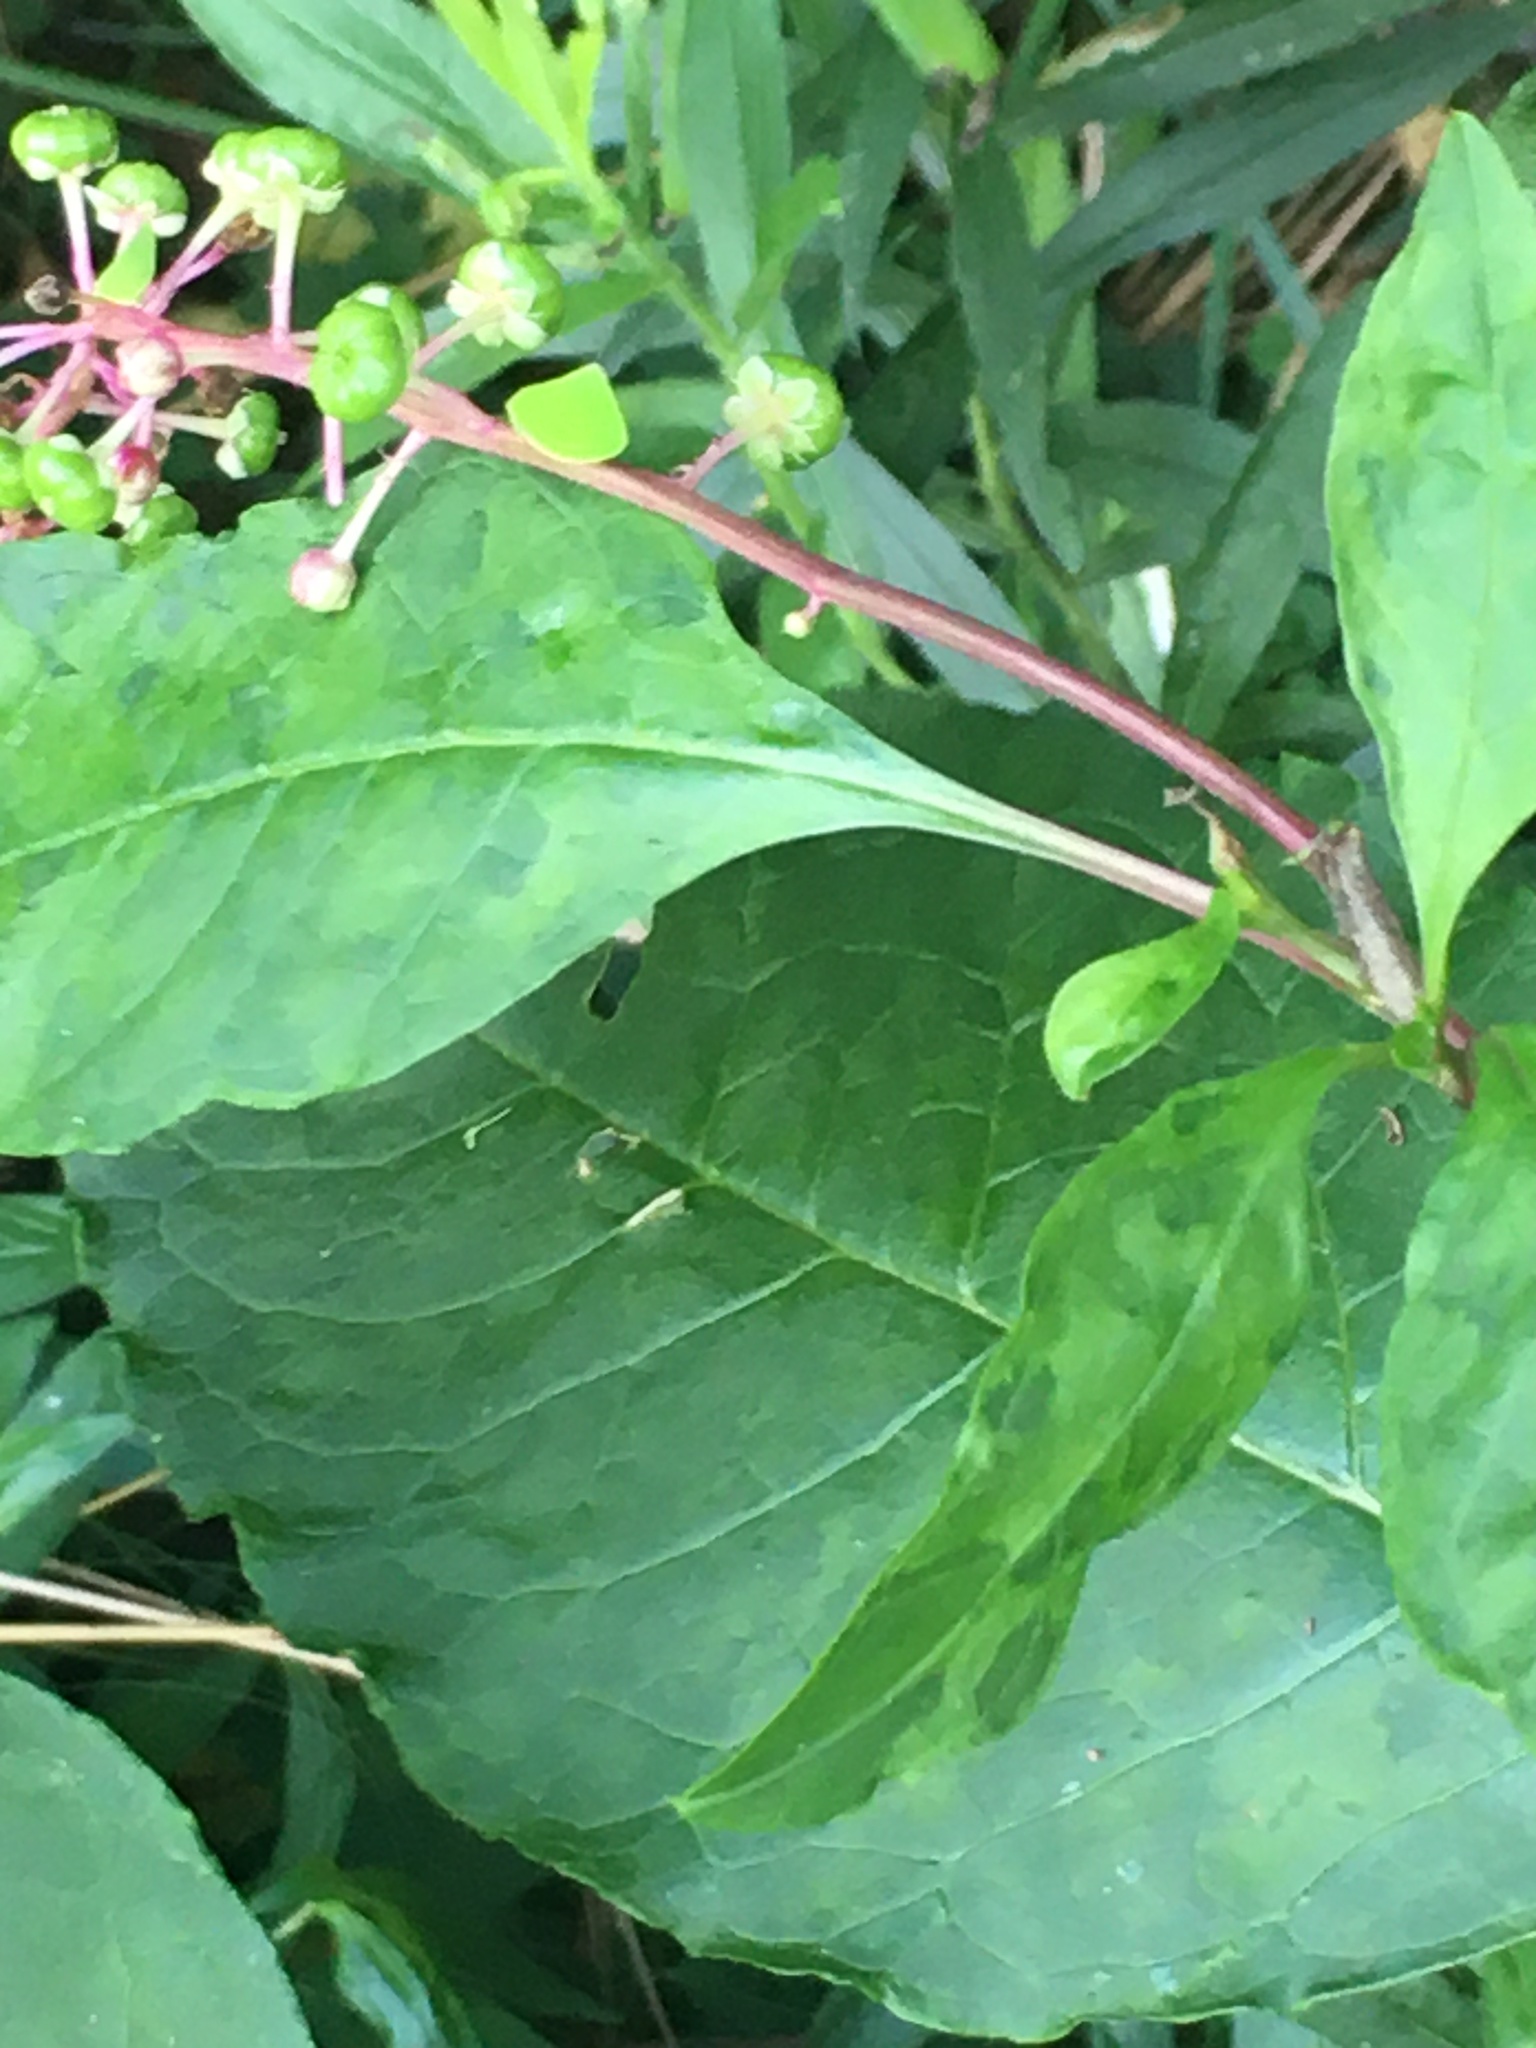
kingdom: Plantae
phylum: Tracheophyta
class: Magnoliopsida
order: Caryophyllales
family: Phytolaccaceae
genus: Phytolacca
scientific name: Phytolacca americana
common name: American pokeweed
